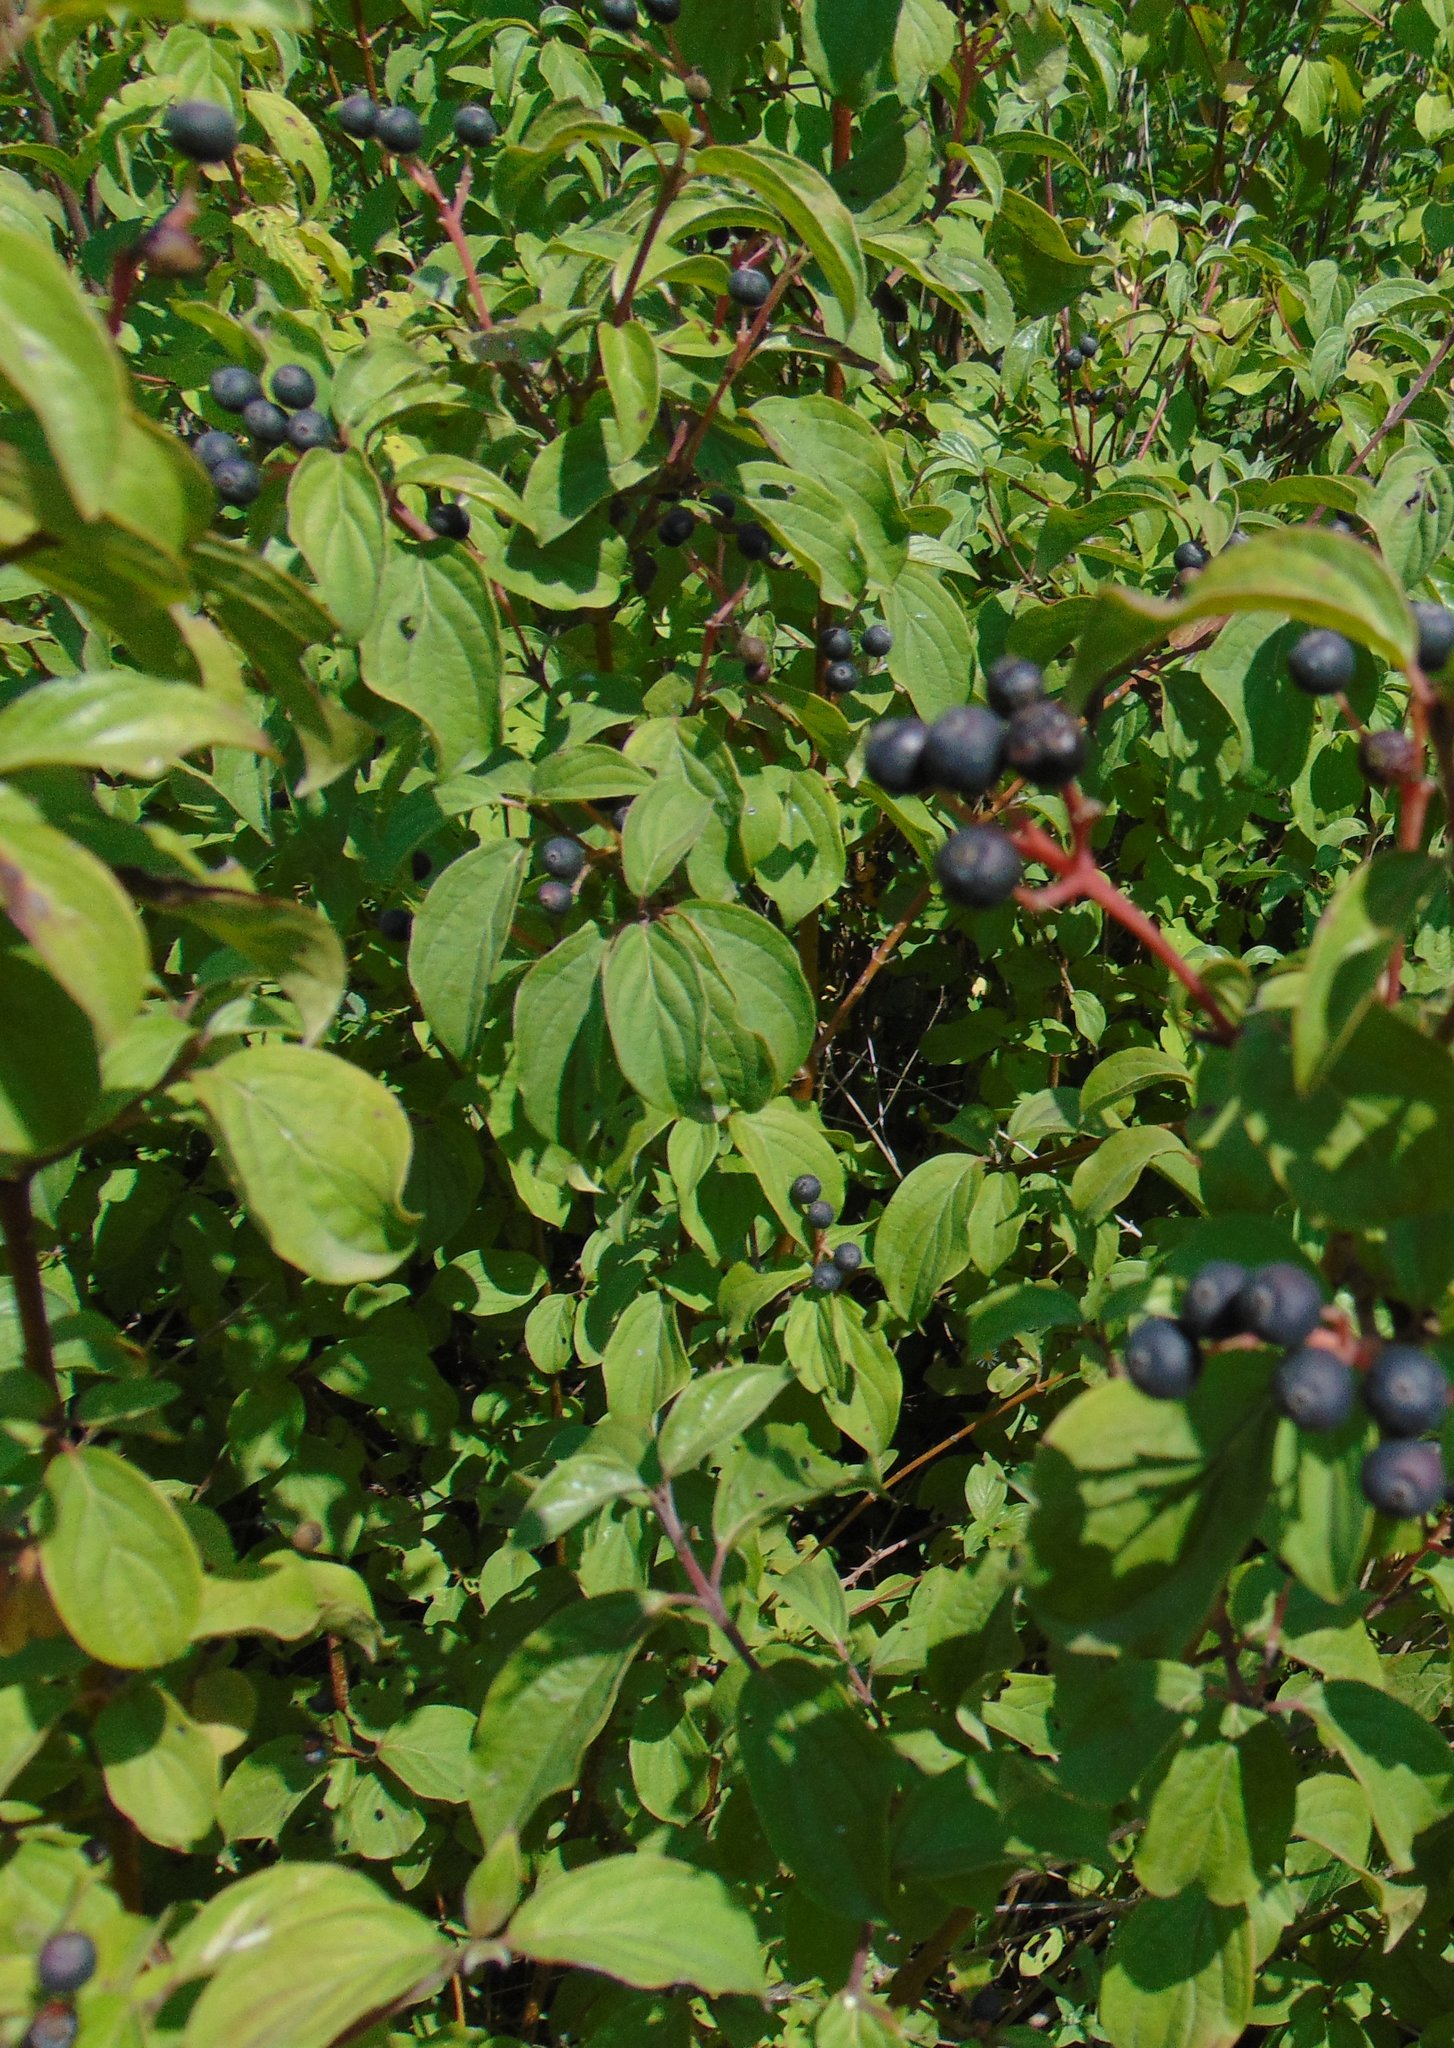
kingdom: Plantae
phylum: Tracheophyta
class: Magnoliopsida
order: Cornales
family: Cornaceae
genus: Cornus
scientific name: Cornus sanguinea
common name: Dogwood
